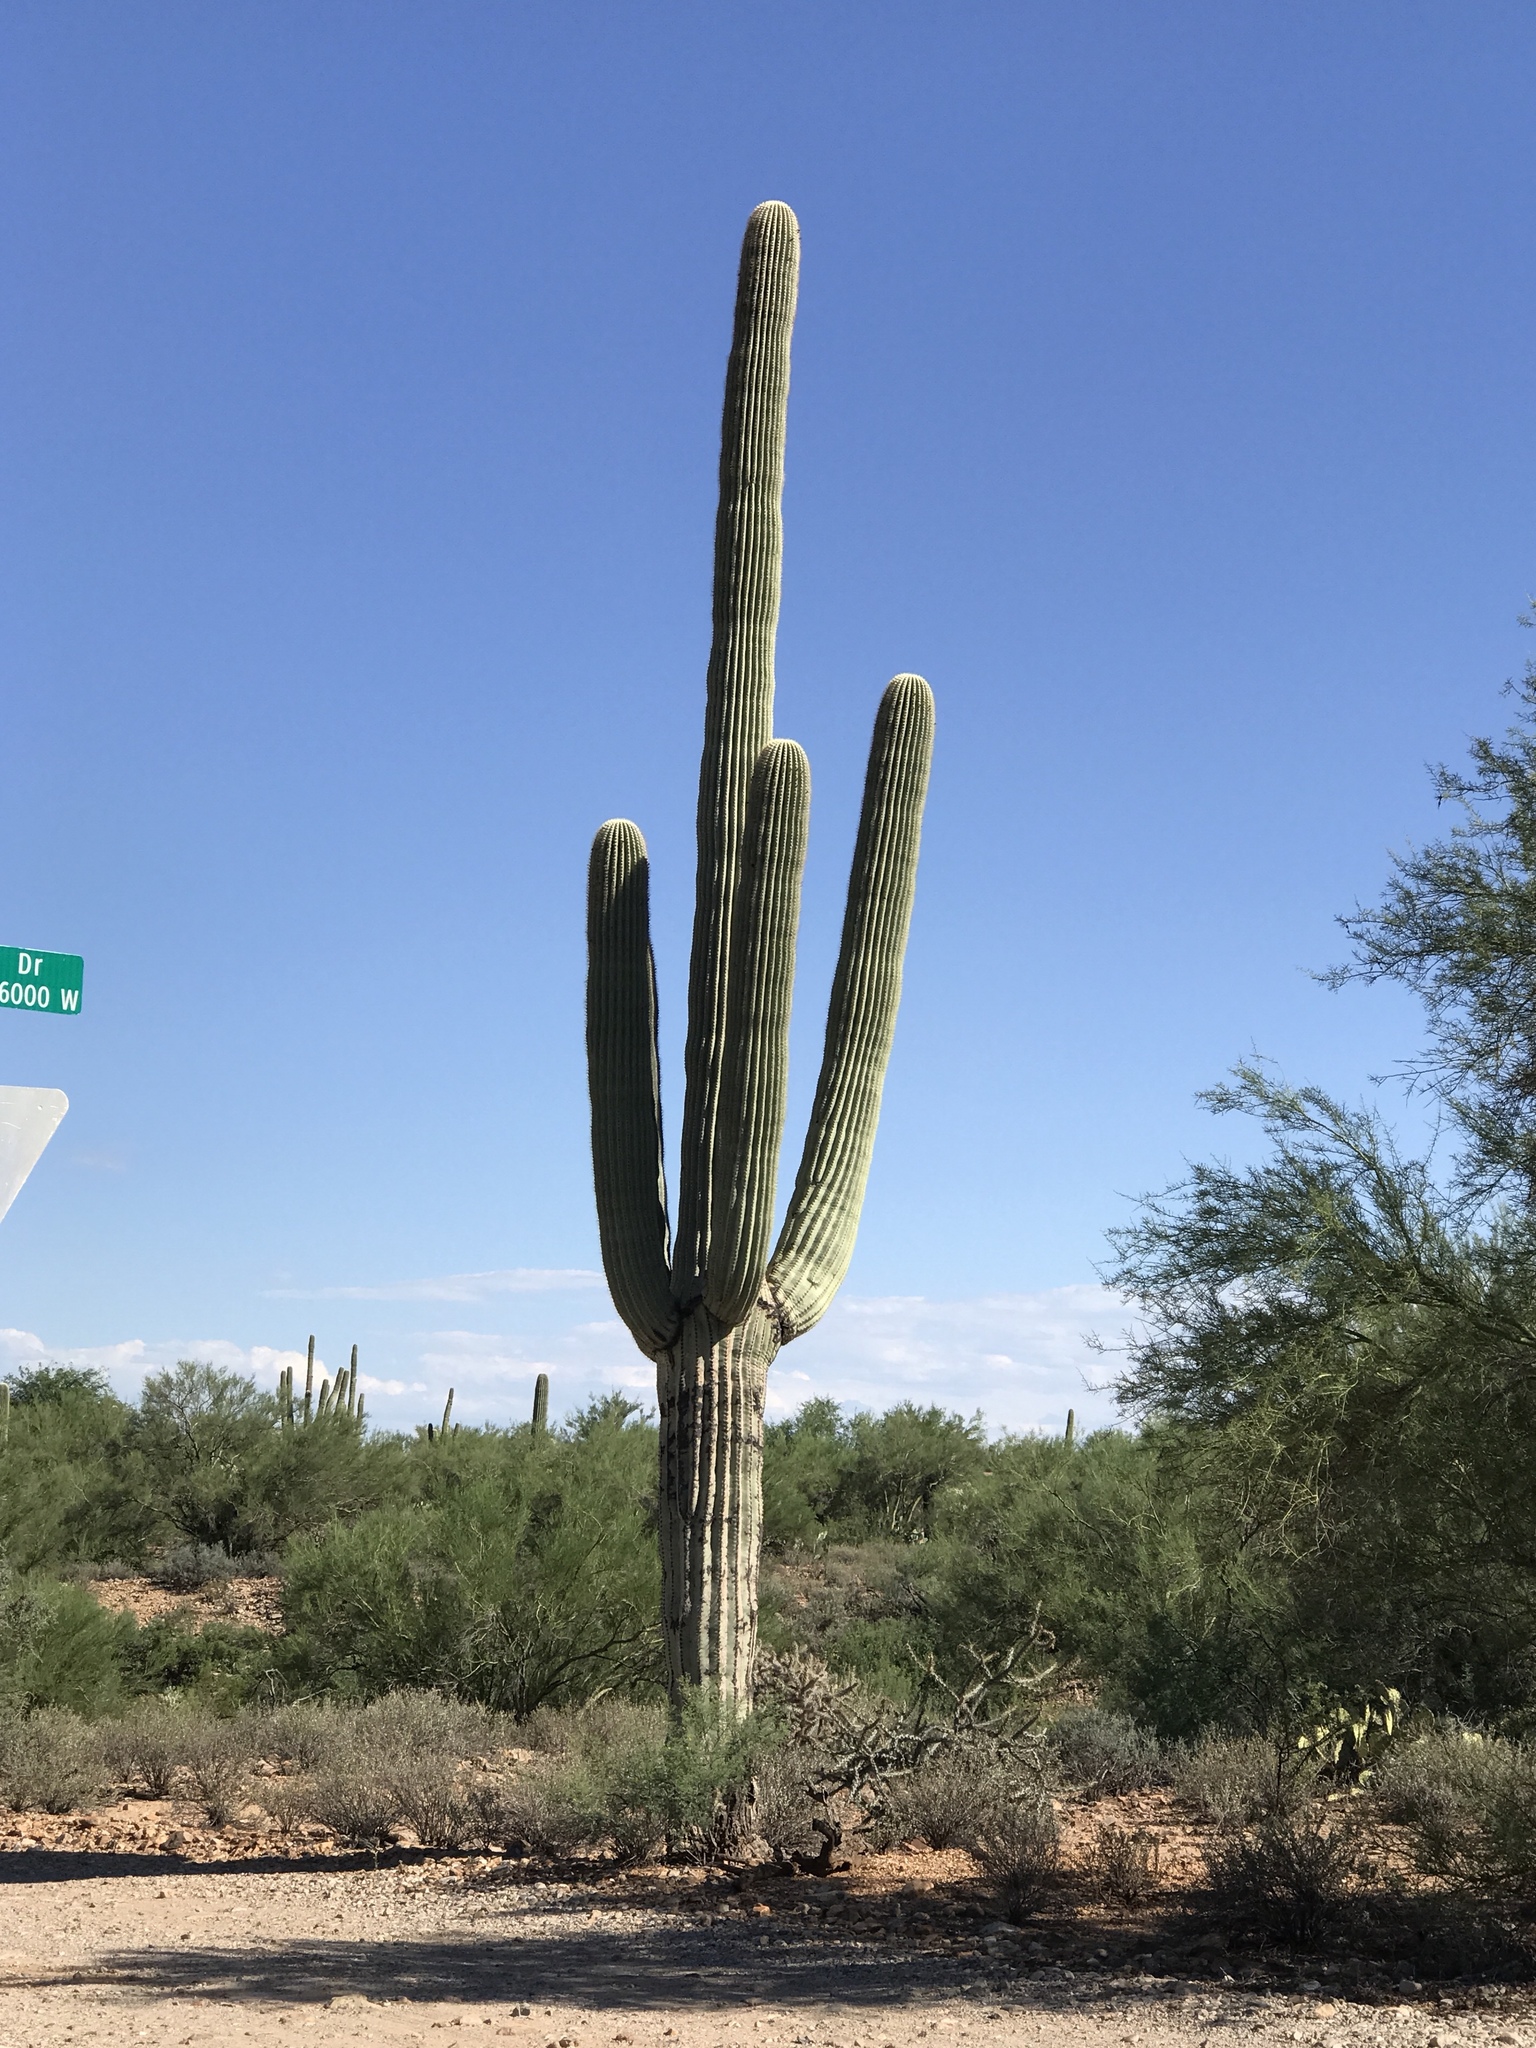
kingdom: Plantae
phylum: Tracheophyta
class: Magnoliopsida
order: Caryophyllales
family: Cactaceae
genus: Carnegiea
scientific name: Carnegiea gigantea
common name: Saguaro
